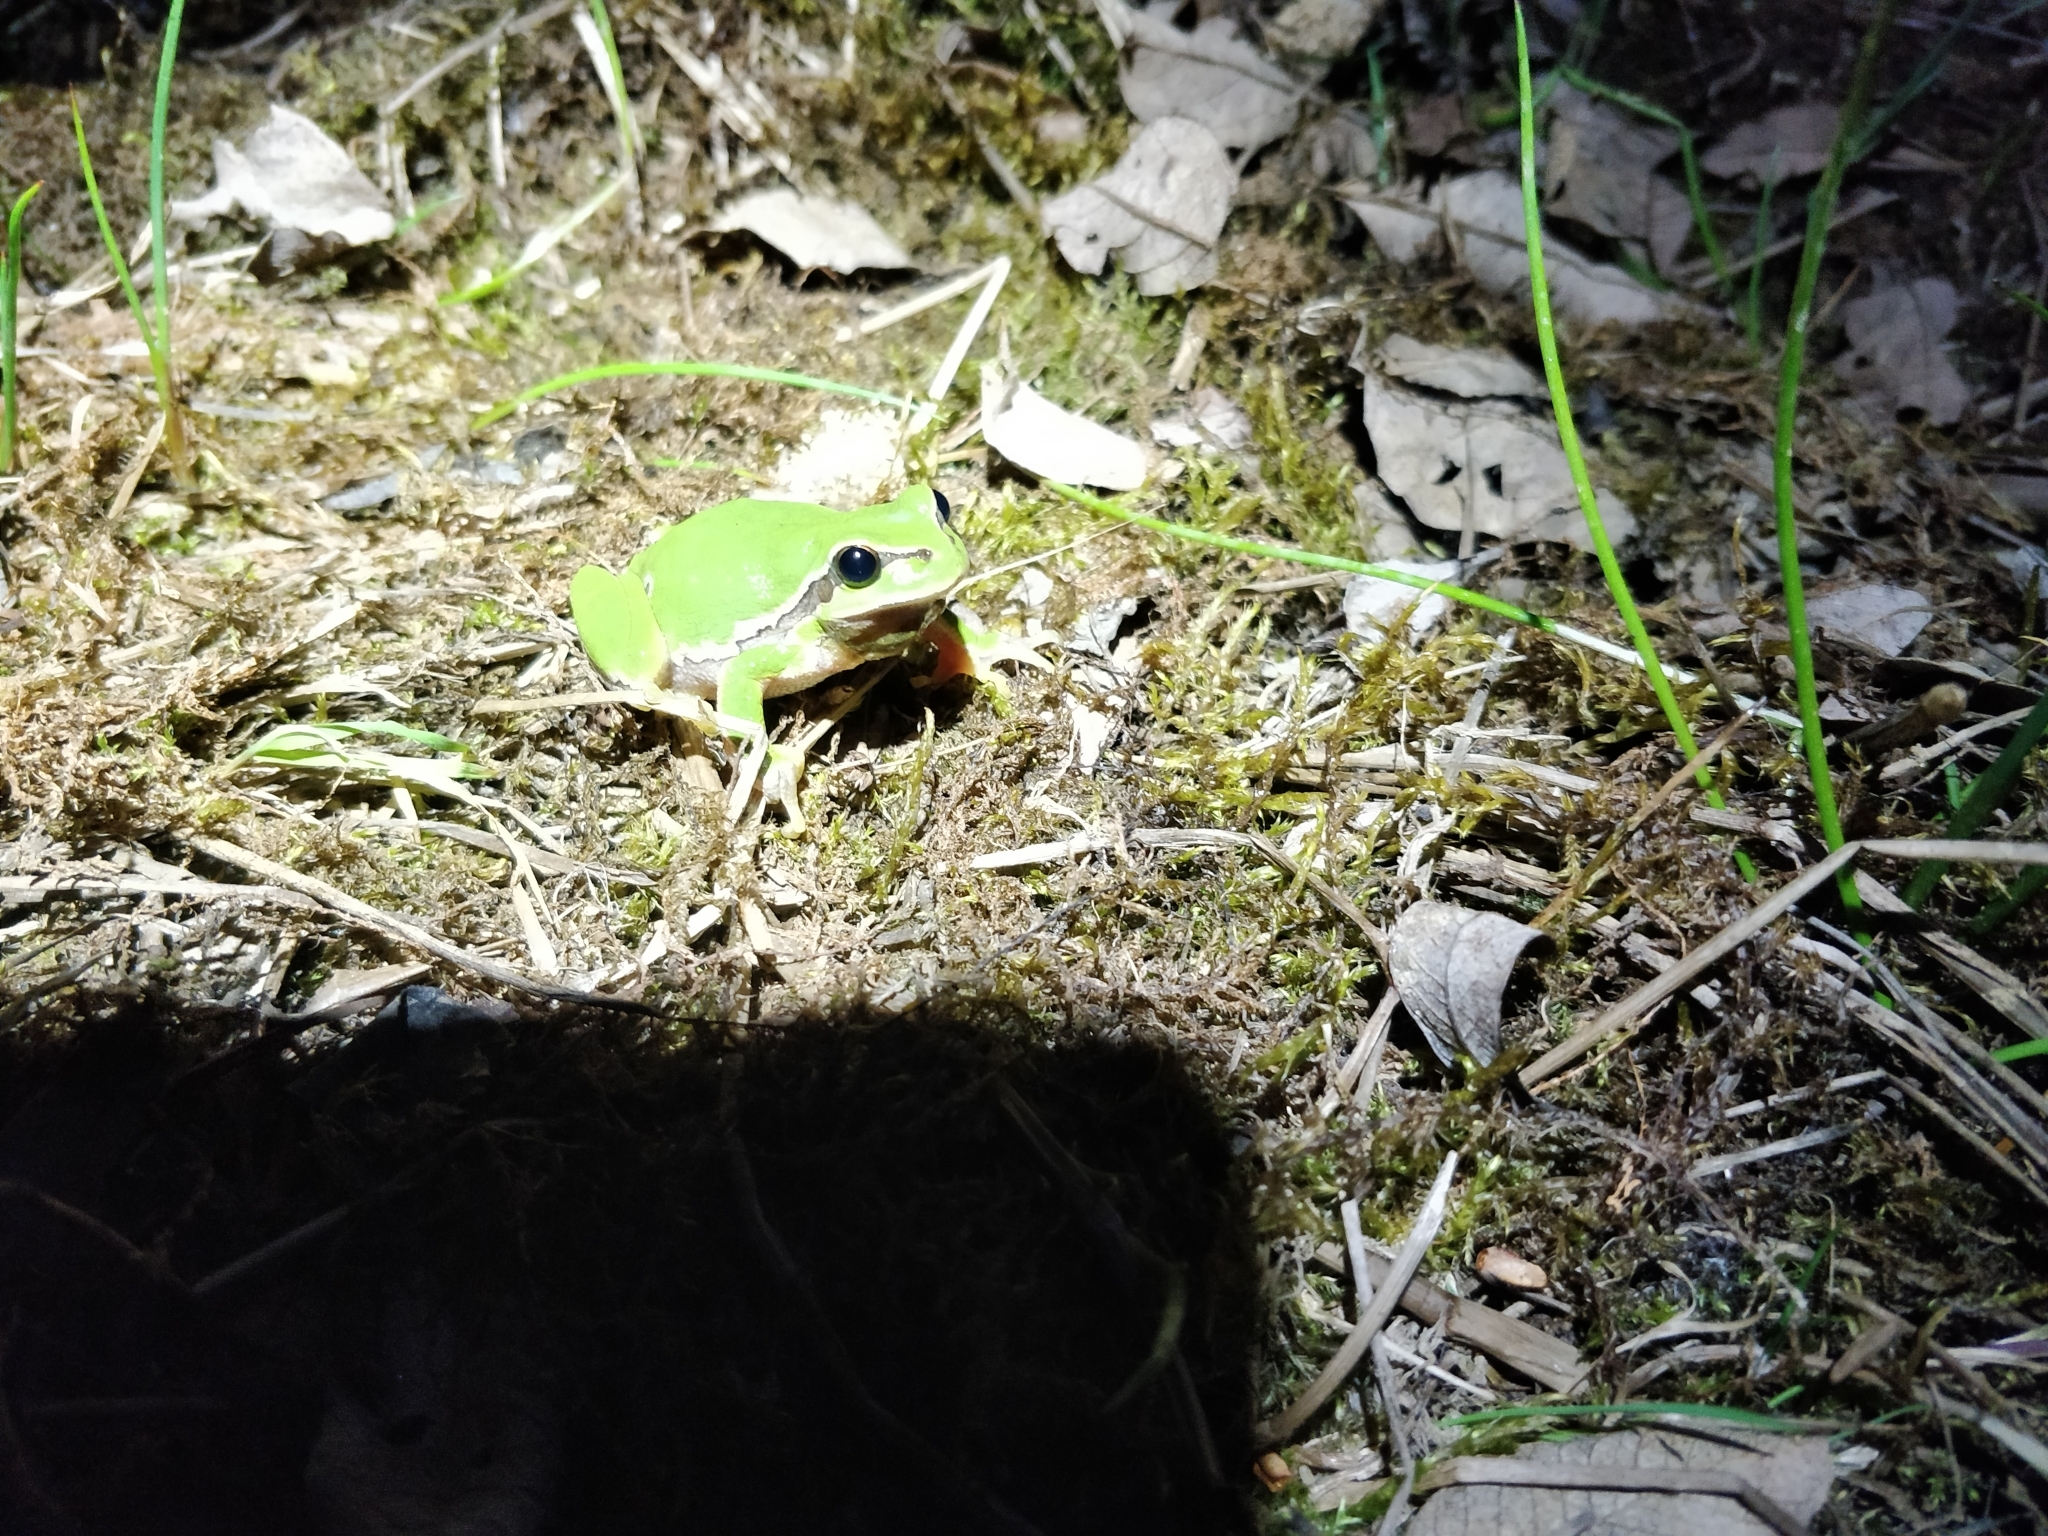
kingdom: Animalia
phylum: Chordata
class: Amphibia
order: Anura
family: Hylidae
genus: Hyla
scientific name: Hyla arborea
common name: Common tree frog
